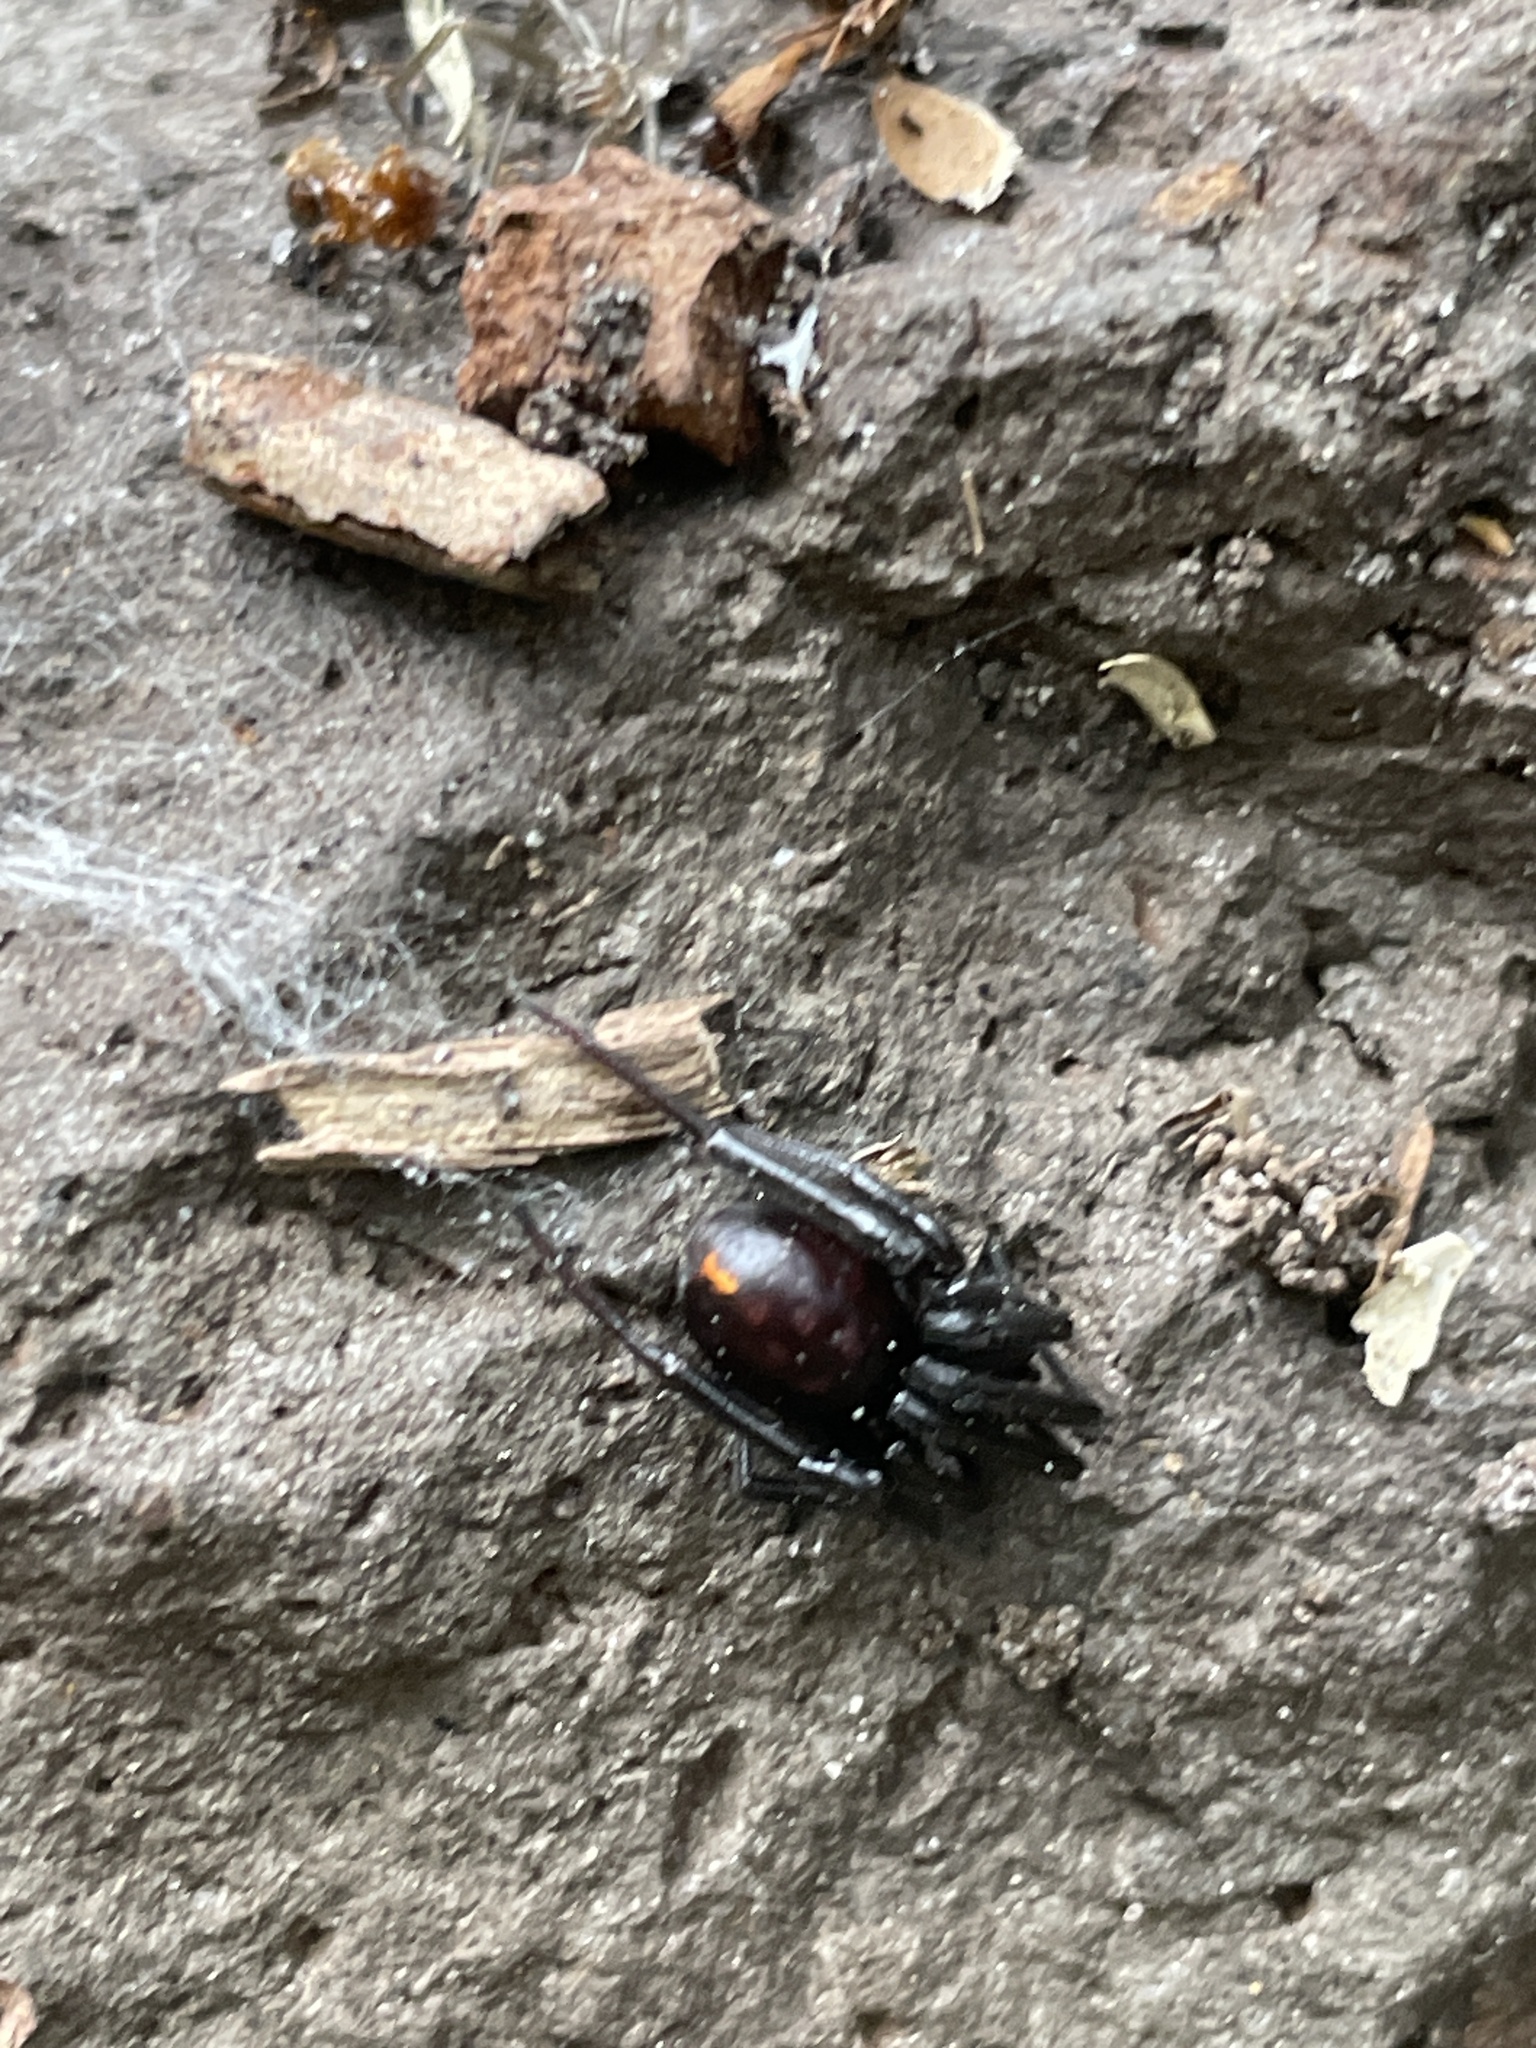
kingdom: Animalia
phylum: Arthropoda
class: Arachnida
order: Araneae
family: Theridiidae
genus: Steatoda
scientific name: Steatoda capensis
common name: Cobweb weaver
